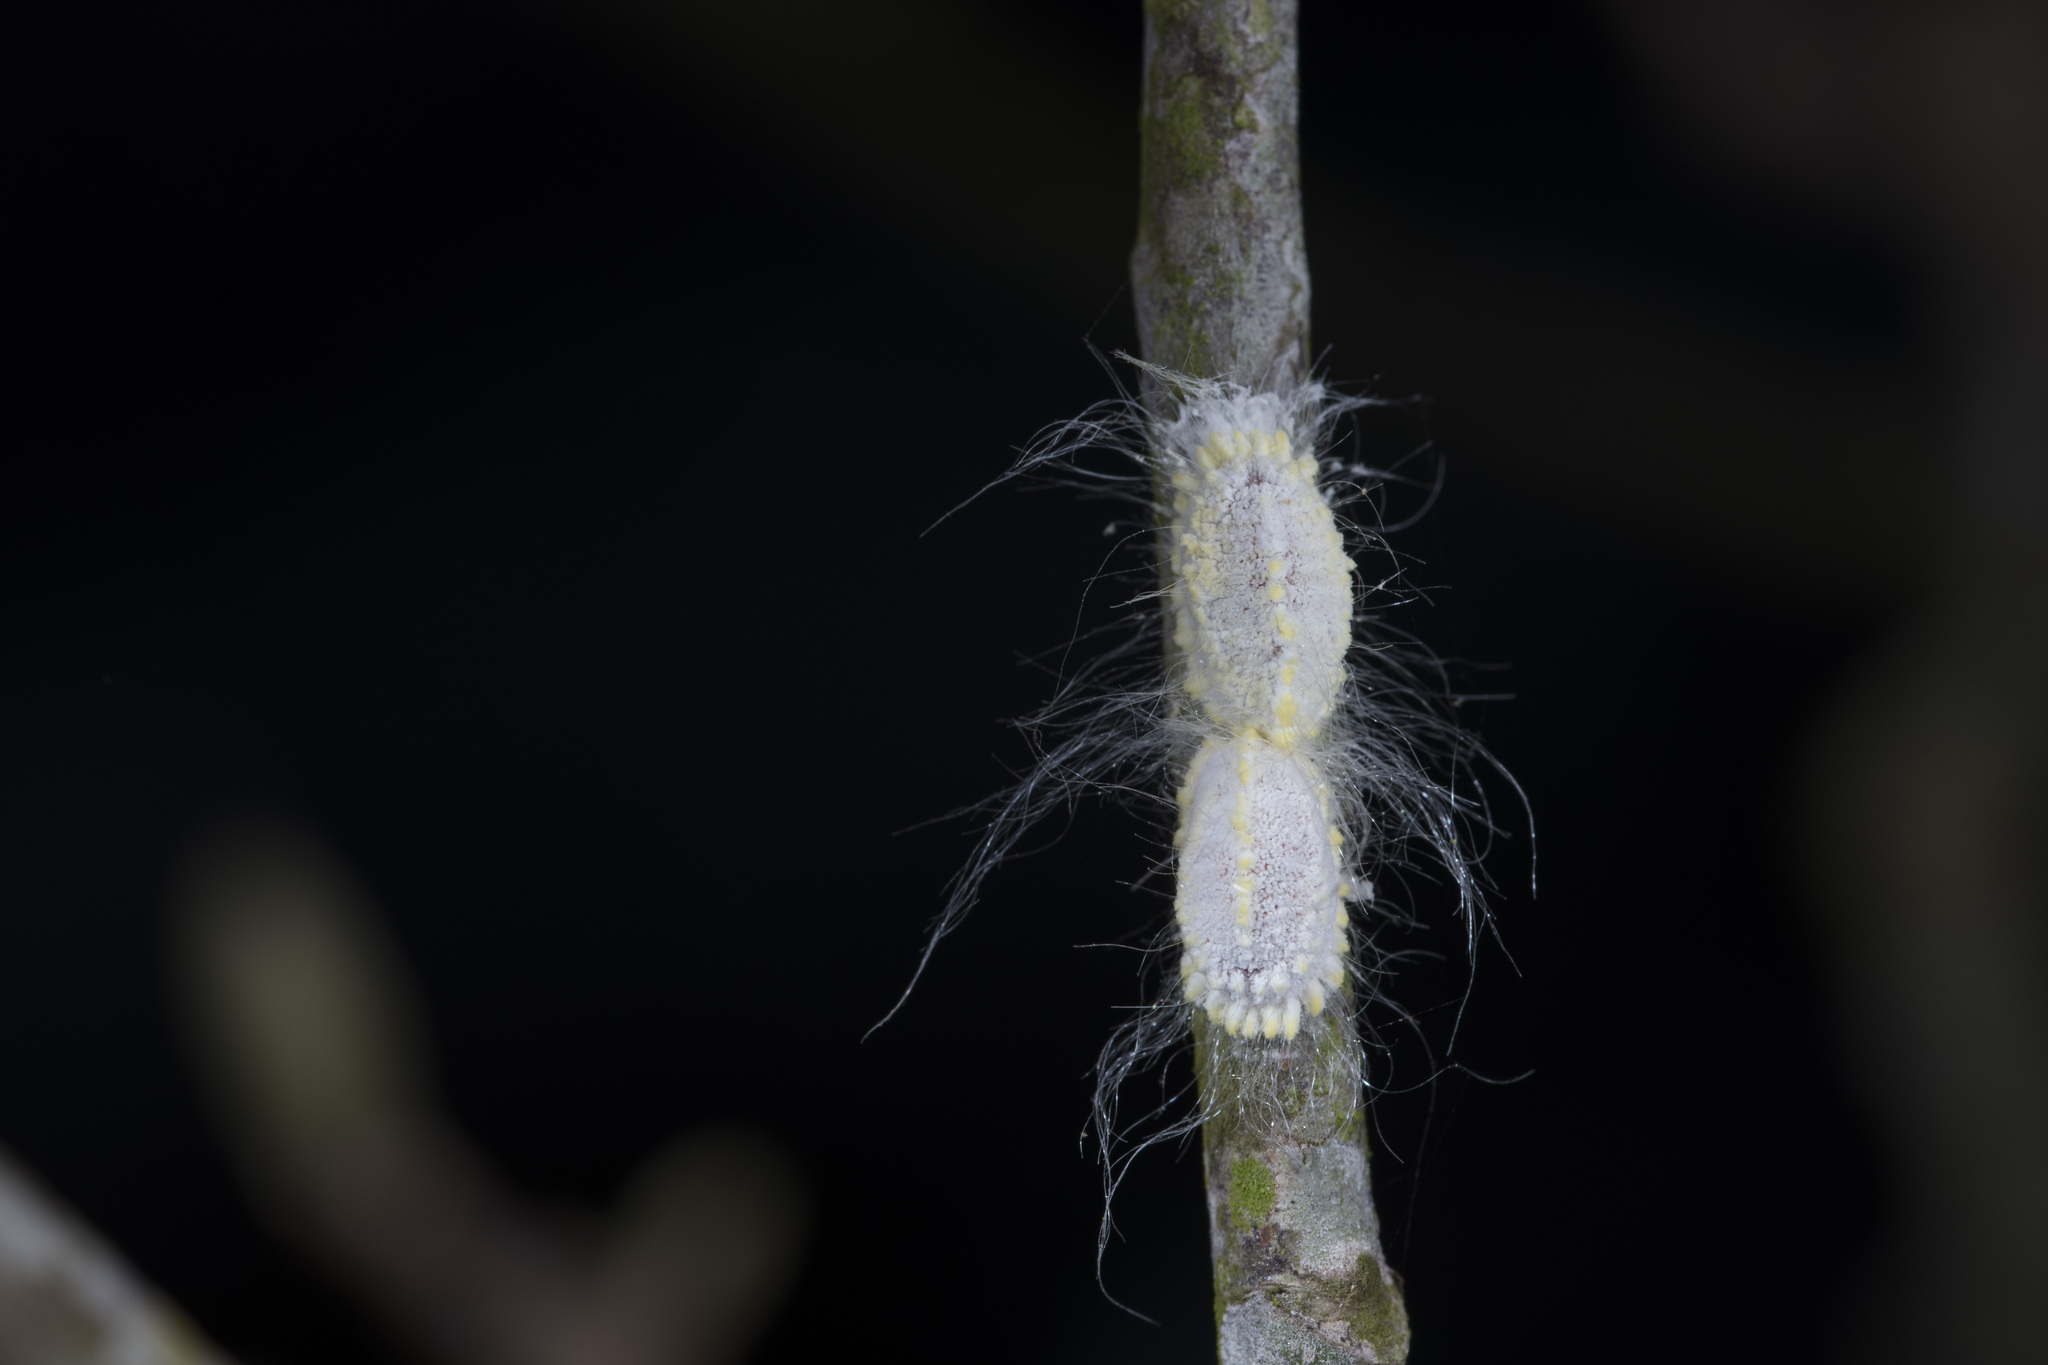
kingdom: Animalia
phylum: Arthropoda
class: Insecta
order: Hemiptera
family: Margarodidae
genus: Icerya
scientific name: Icerya seychellarum
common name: Iceplant scale
